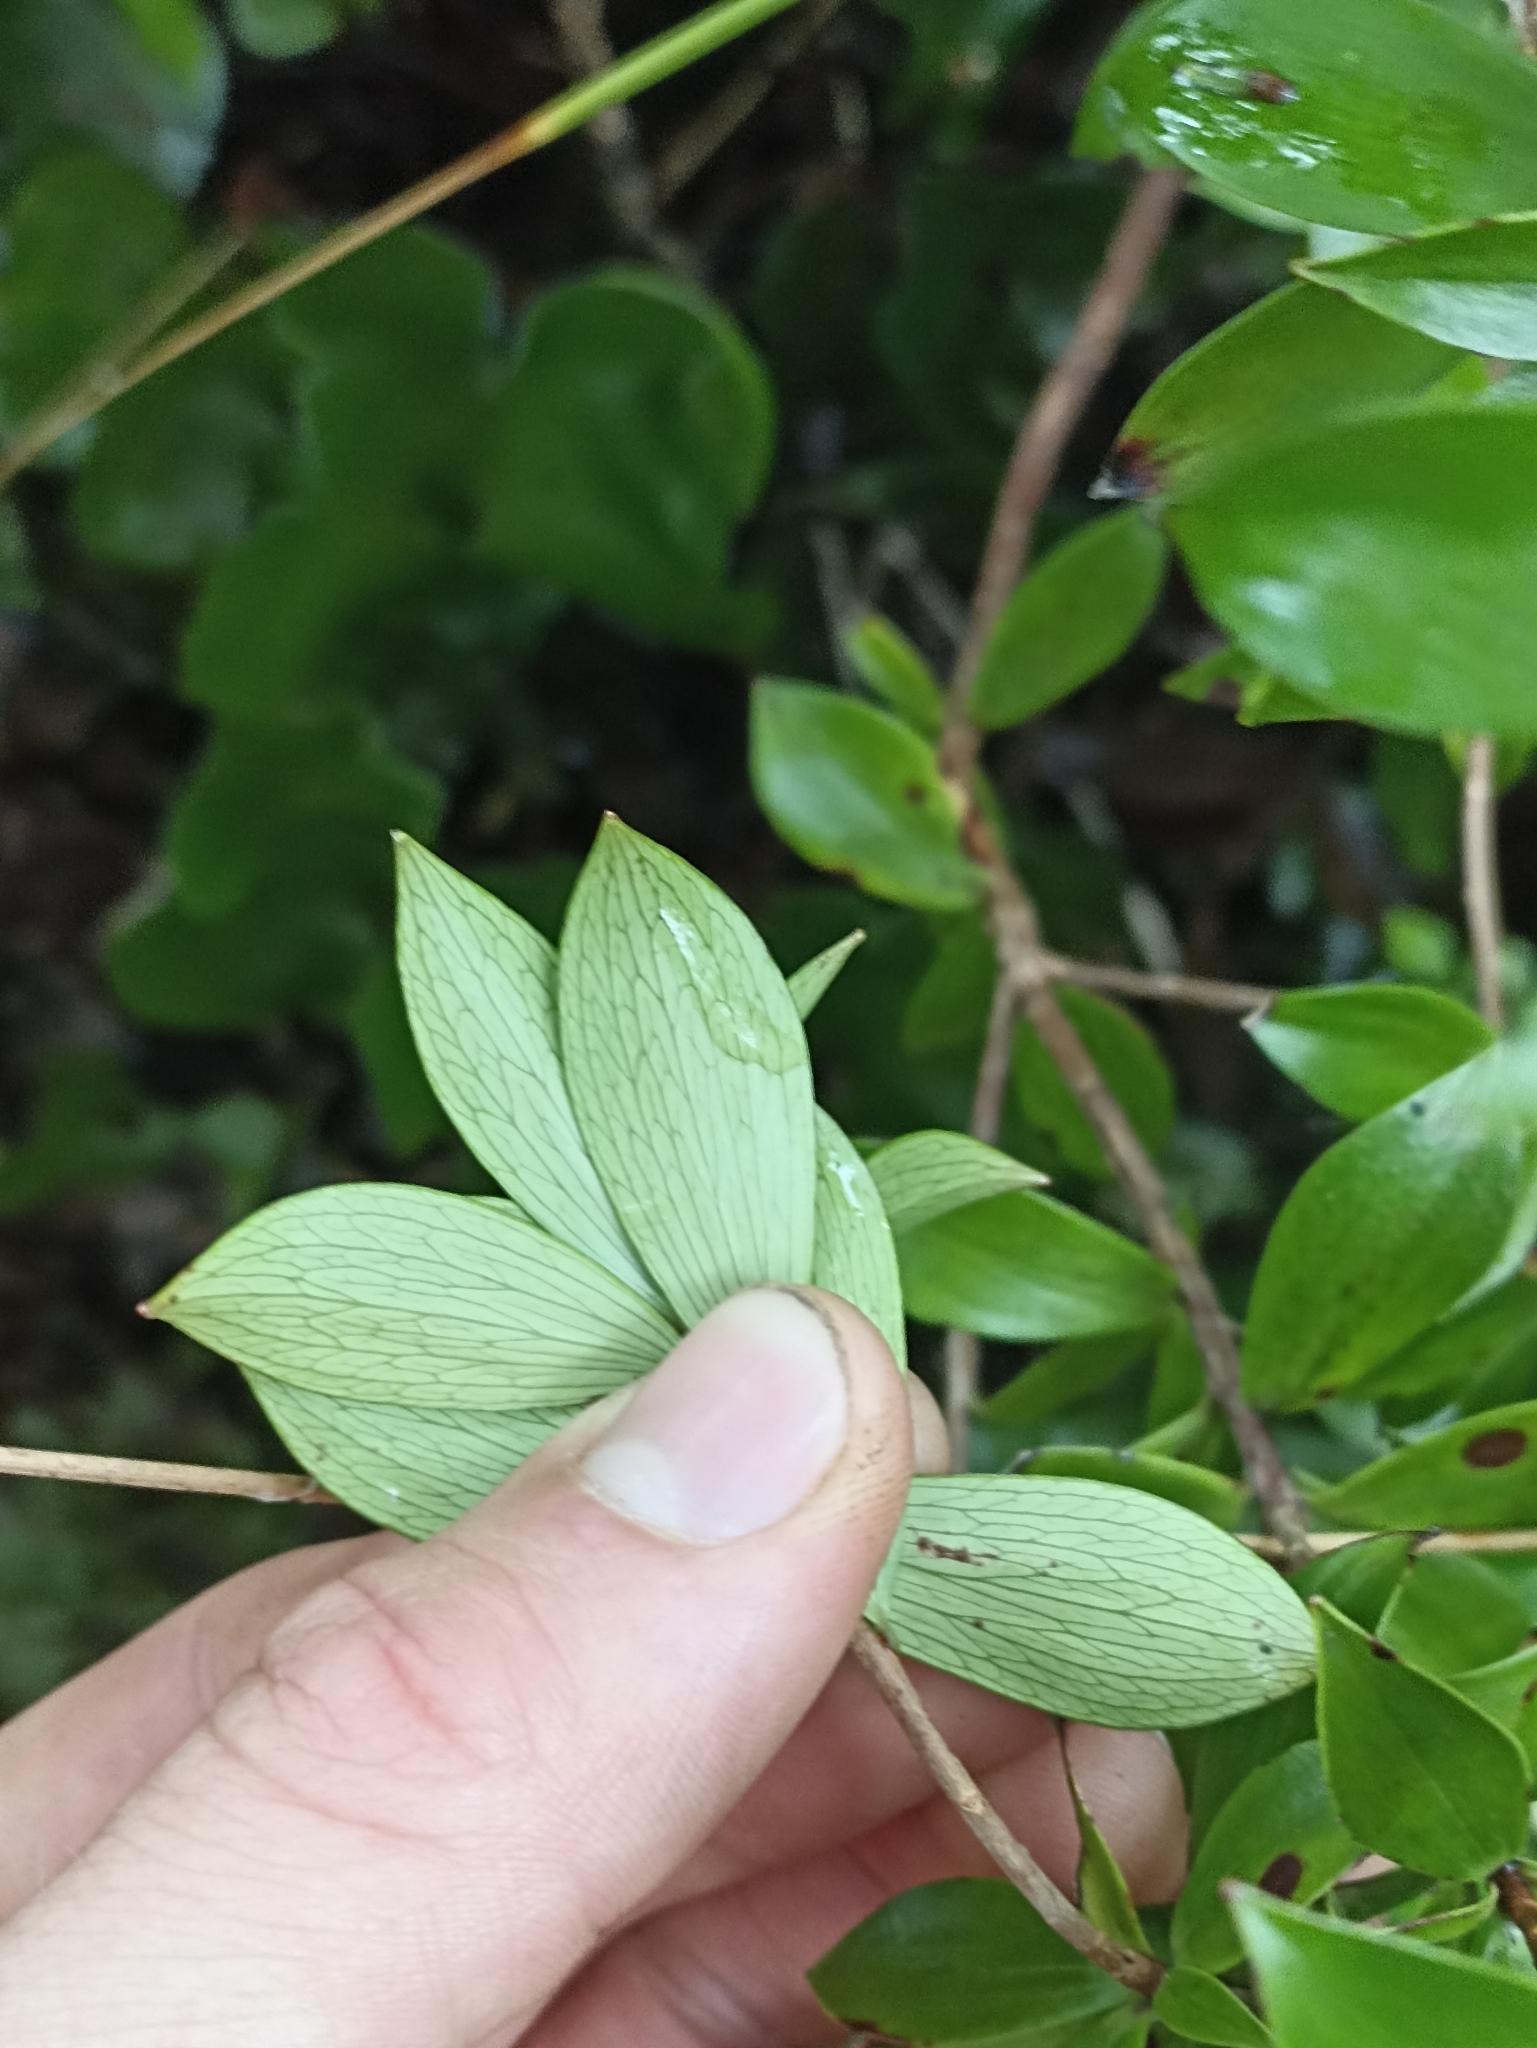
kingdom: Plantae
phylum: Tracheophyta
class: Magnoliopsida
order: Ericales
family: Ericaceae
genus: Archeria
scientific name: Archeria racemosa
